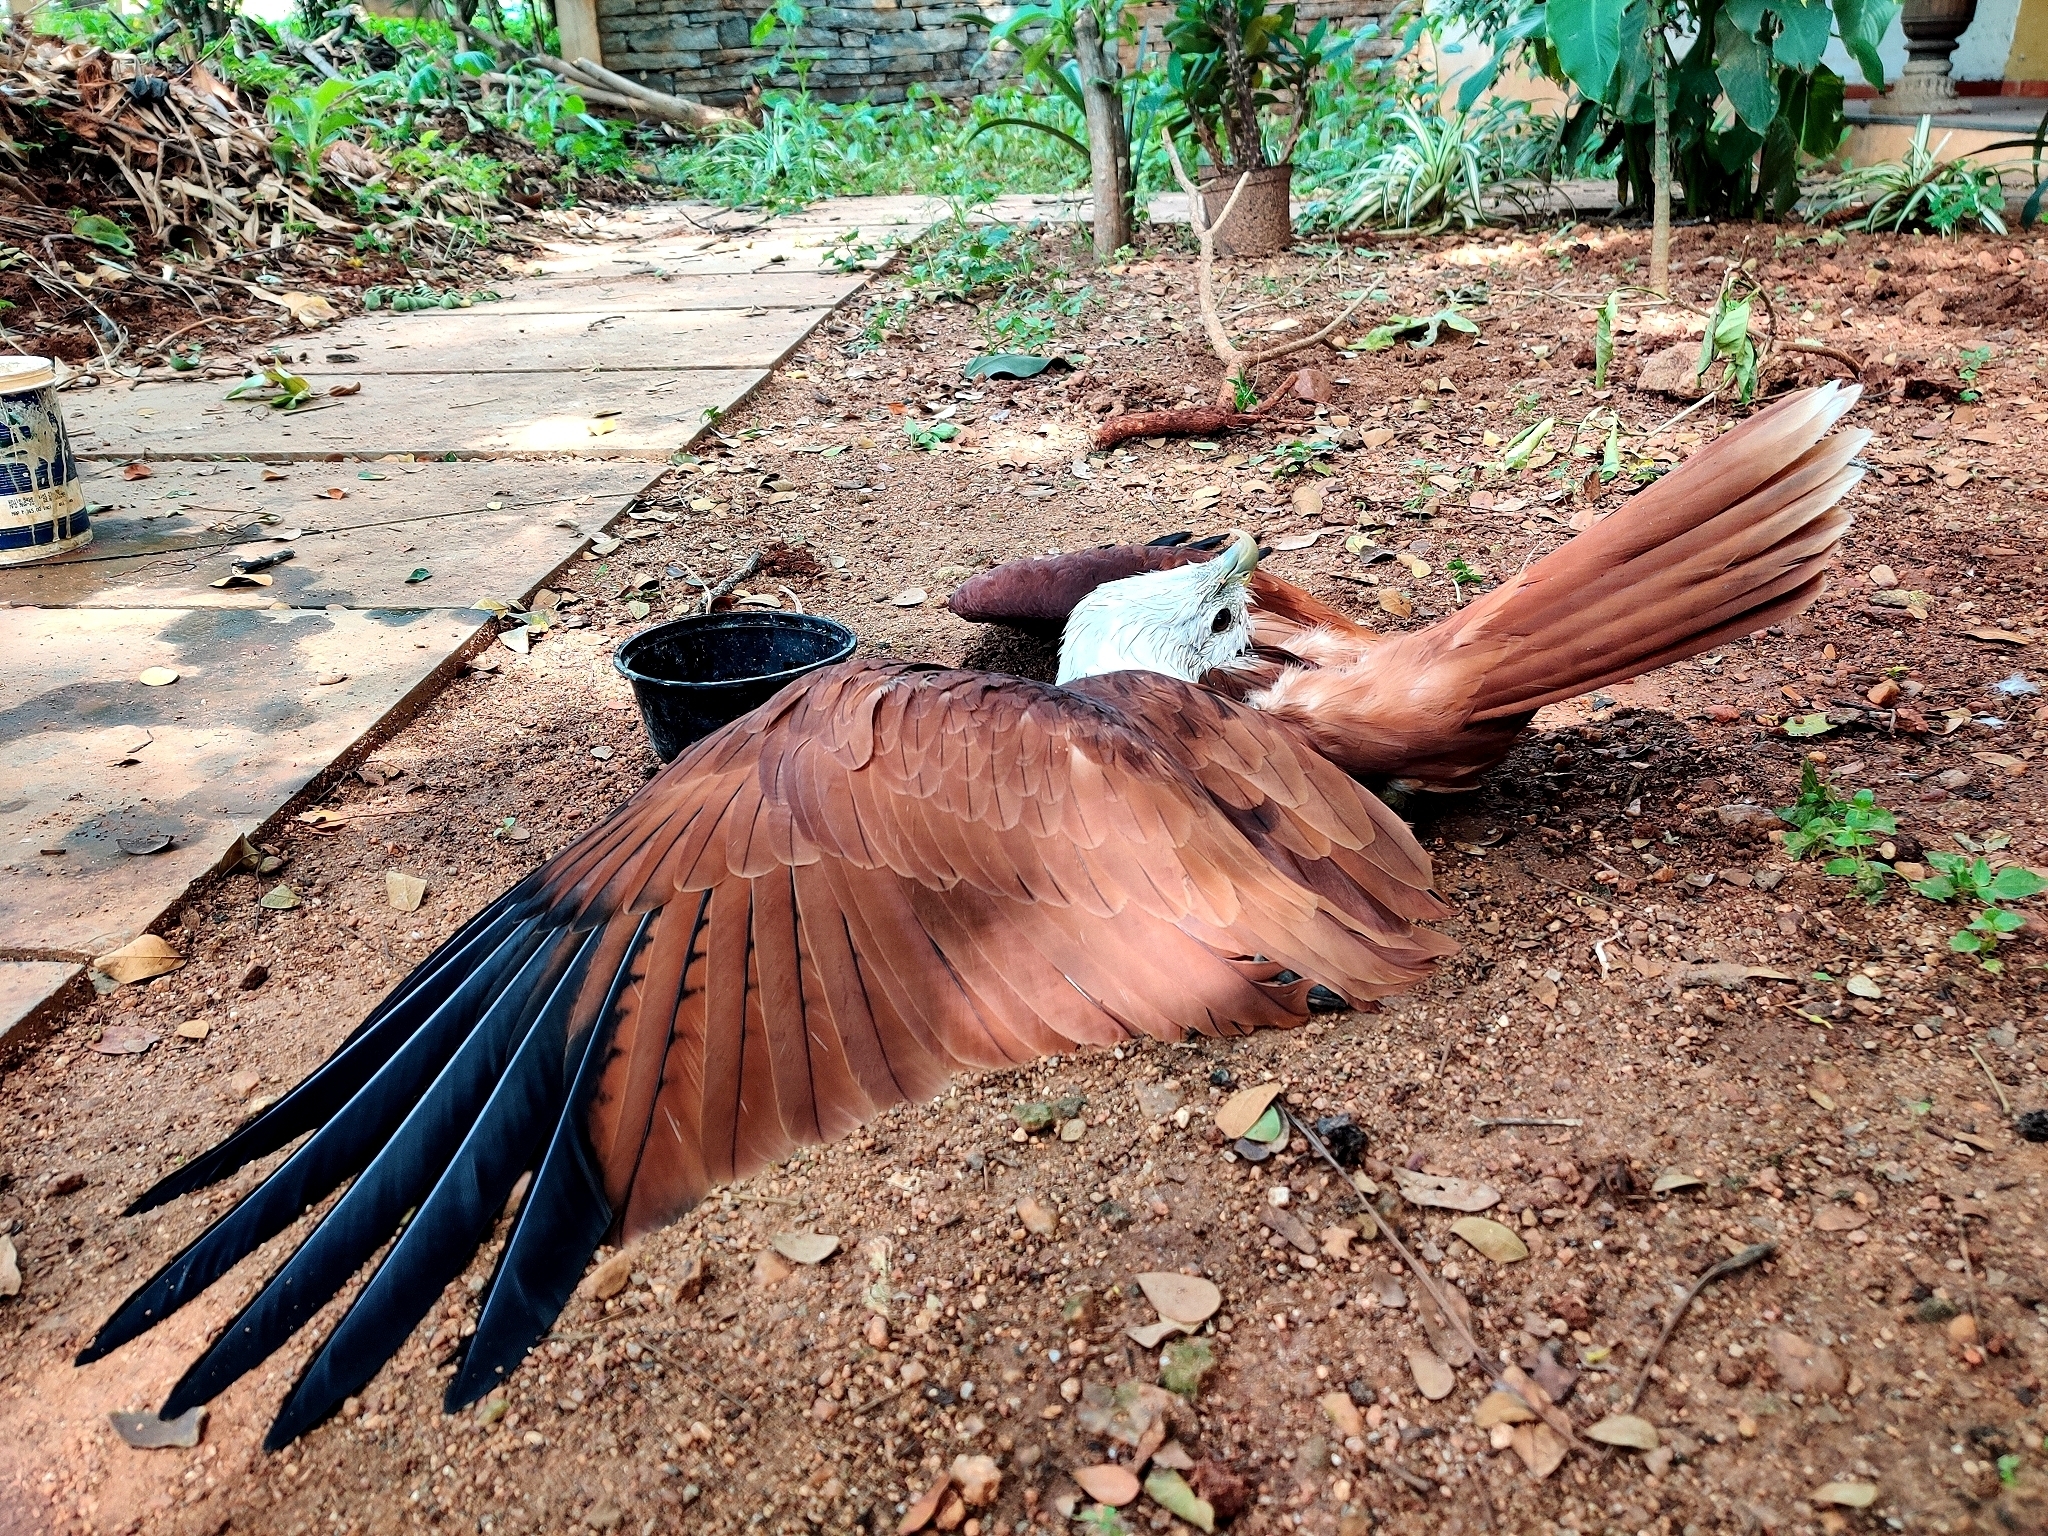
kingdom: Animalia
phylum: Chordata
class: Aves
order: Accipitriformes
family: Accipitridae
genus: Haliastur
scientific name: Haliastur indus
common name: Brahminy kite
